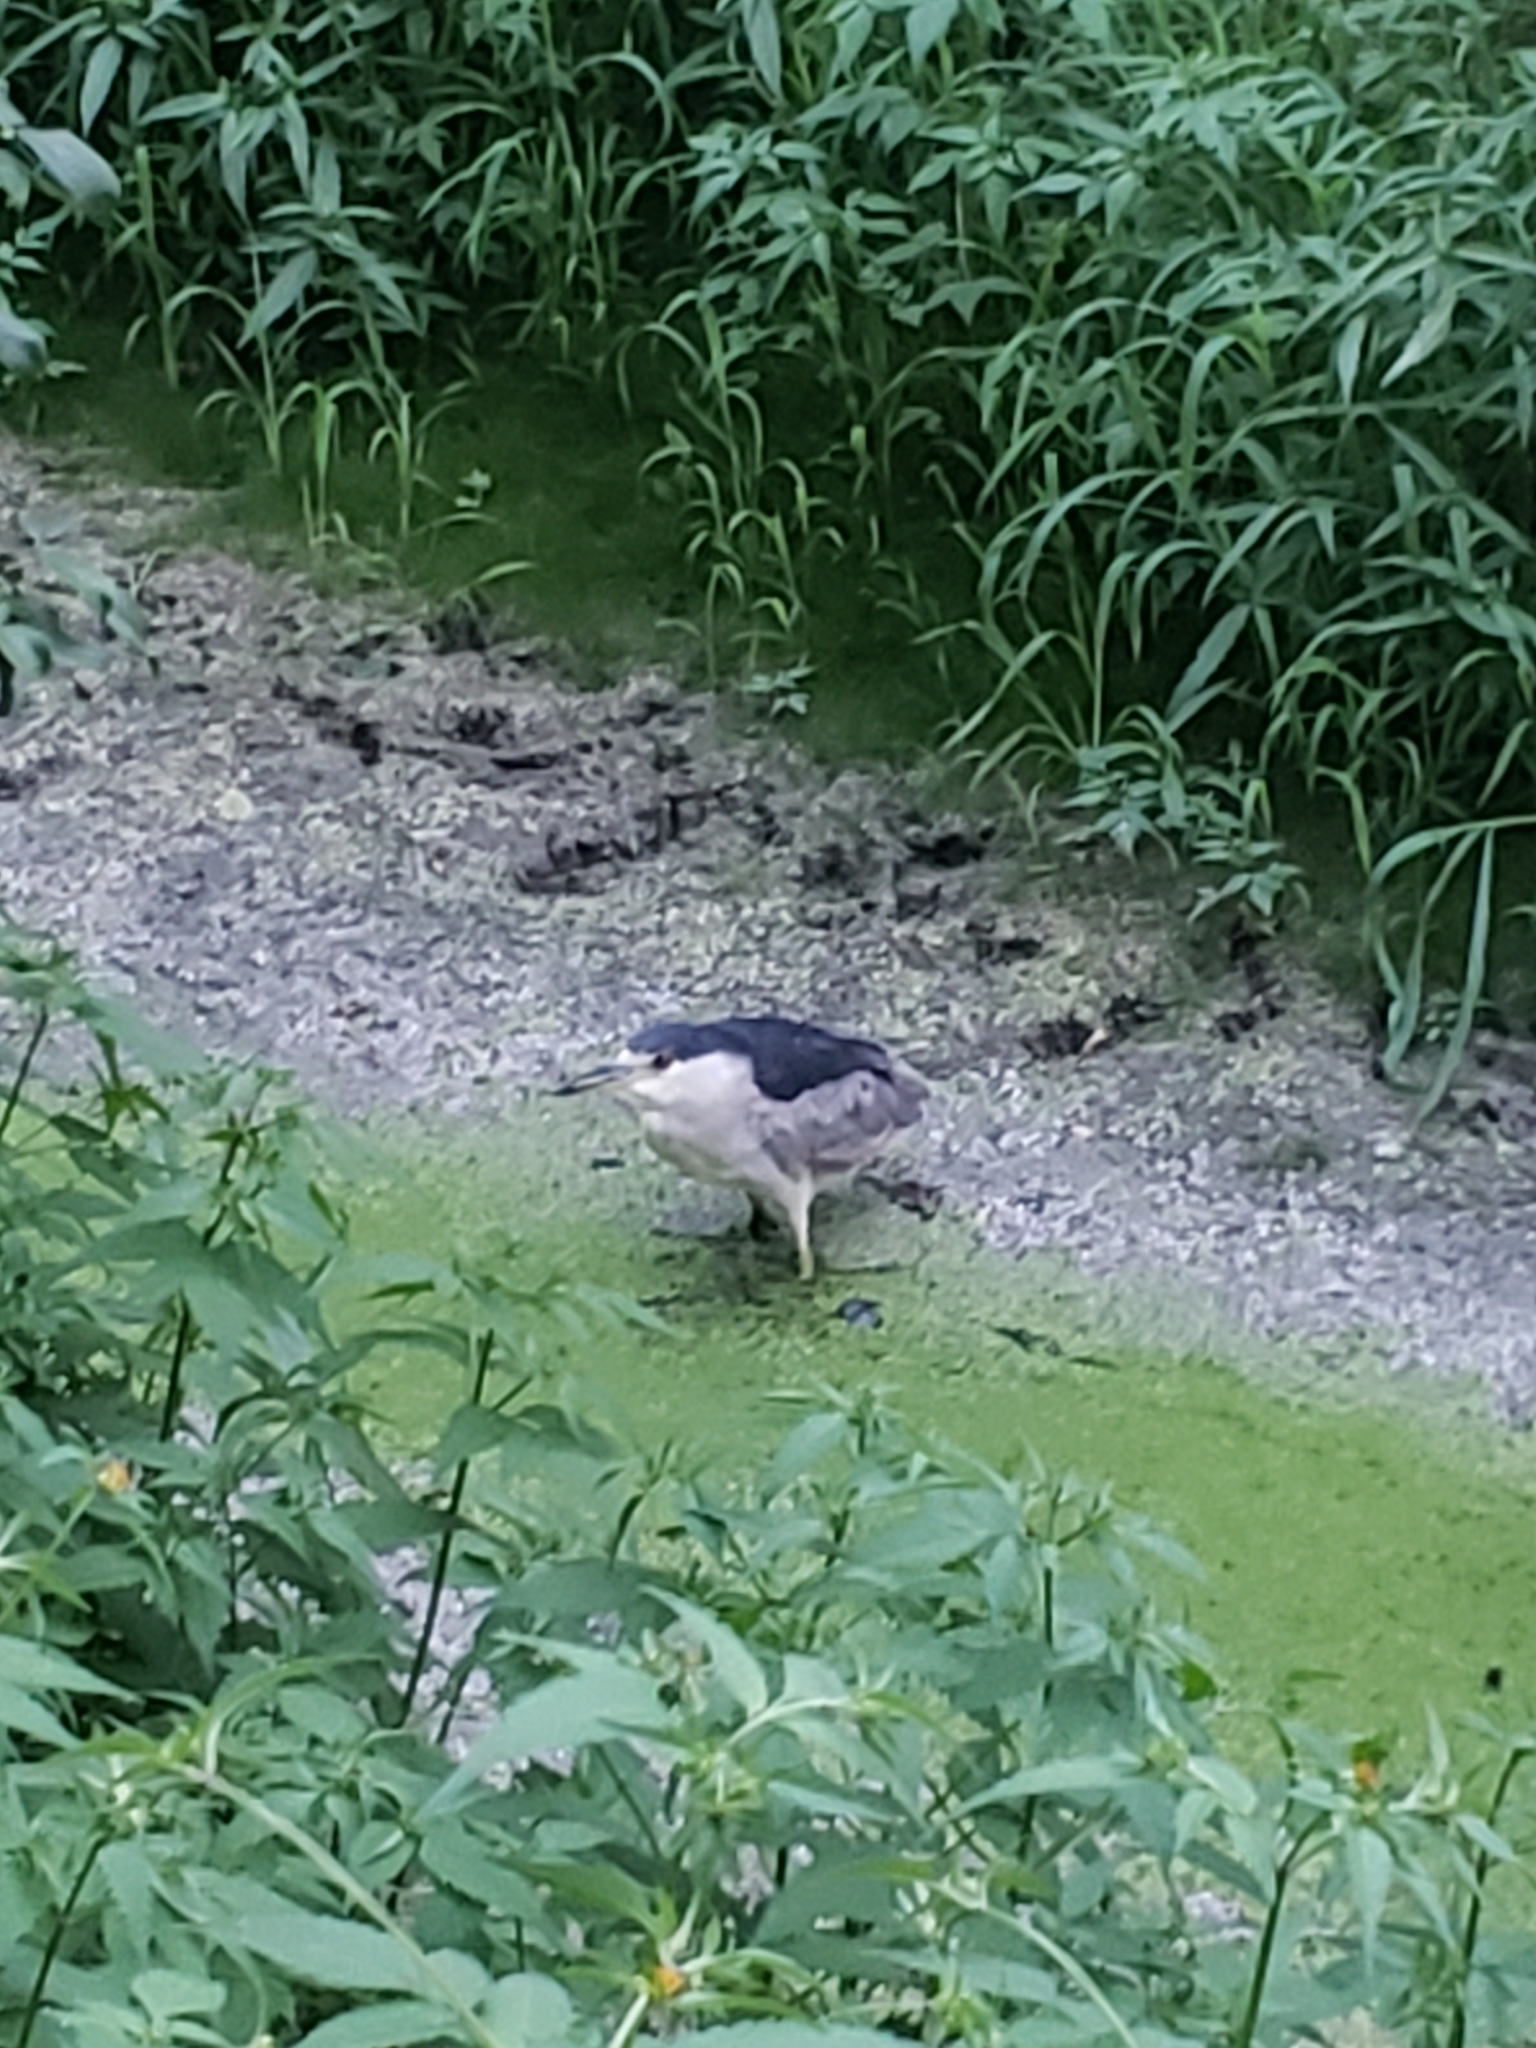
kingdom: Animalia
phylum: Chordata
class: Aves
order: Pelecaniformes
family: Ardeidae
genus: Nycticorax
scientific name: Nycticorax nycticorax
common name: Black-crowned night heron
